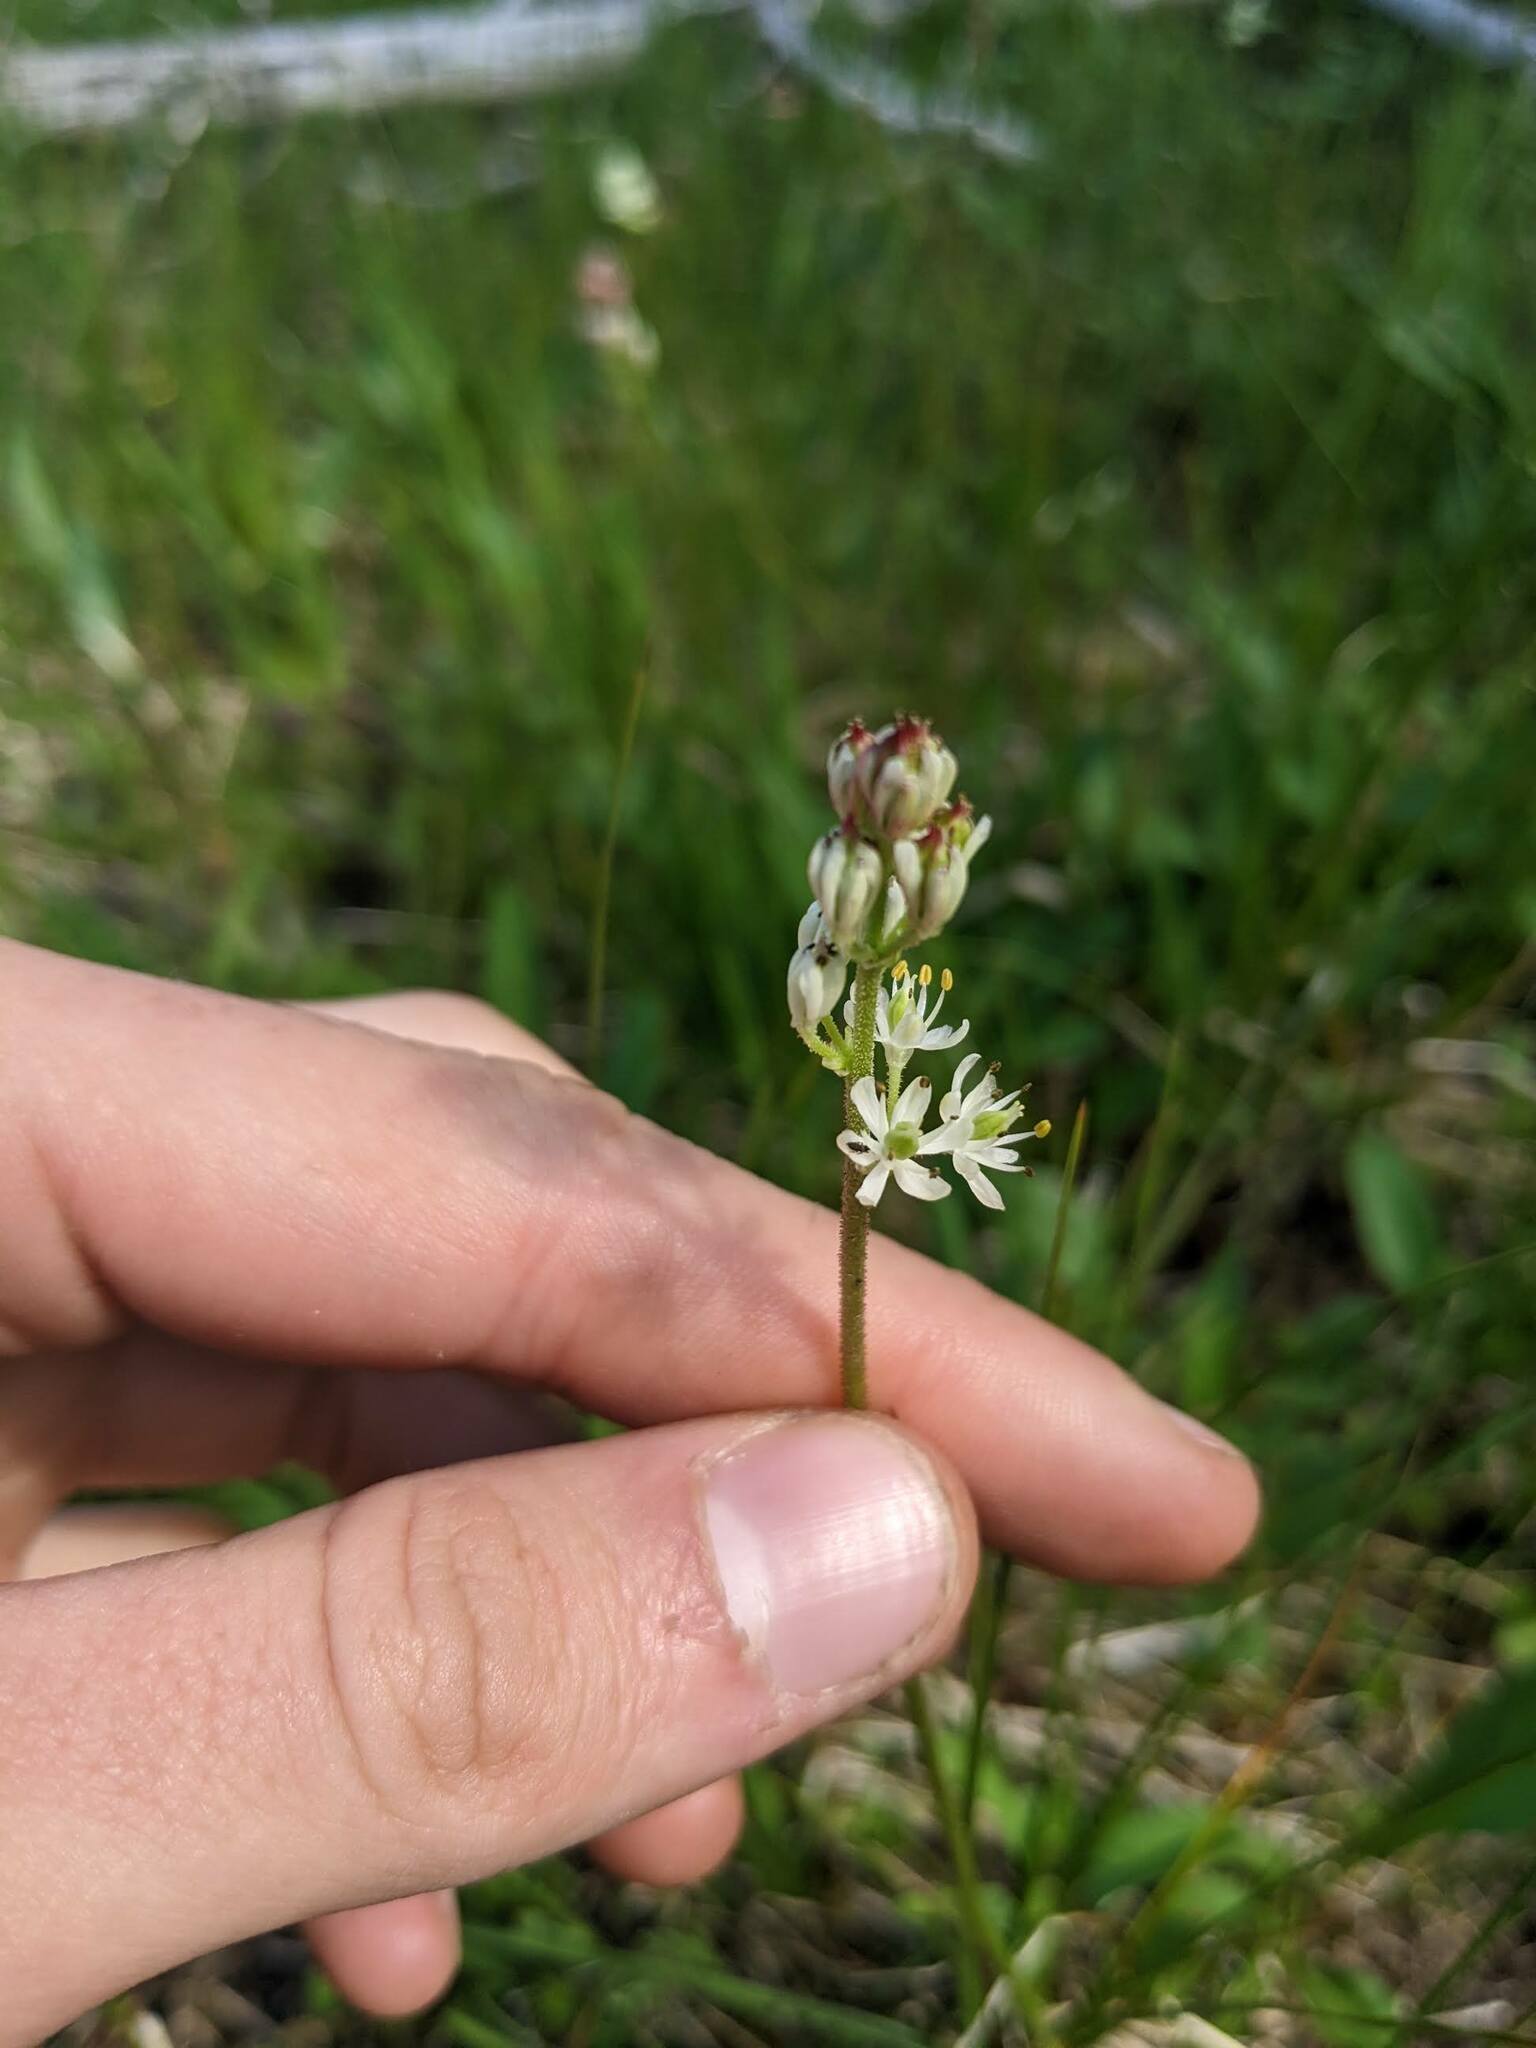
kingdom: Plantae
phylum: Tracheophyta
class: Liliopsida
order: Alismatales
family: Tofieldiaceae
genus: Triantha
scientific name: Triantha glutinosa
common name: Glutinous tofieldia
